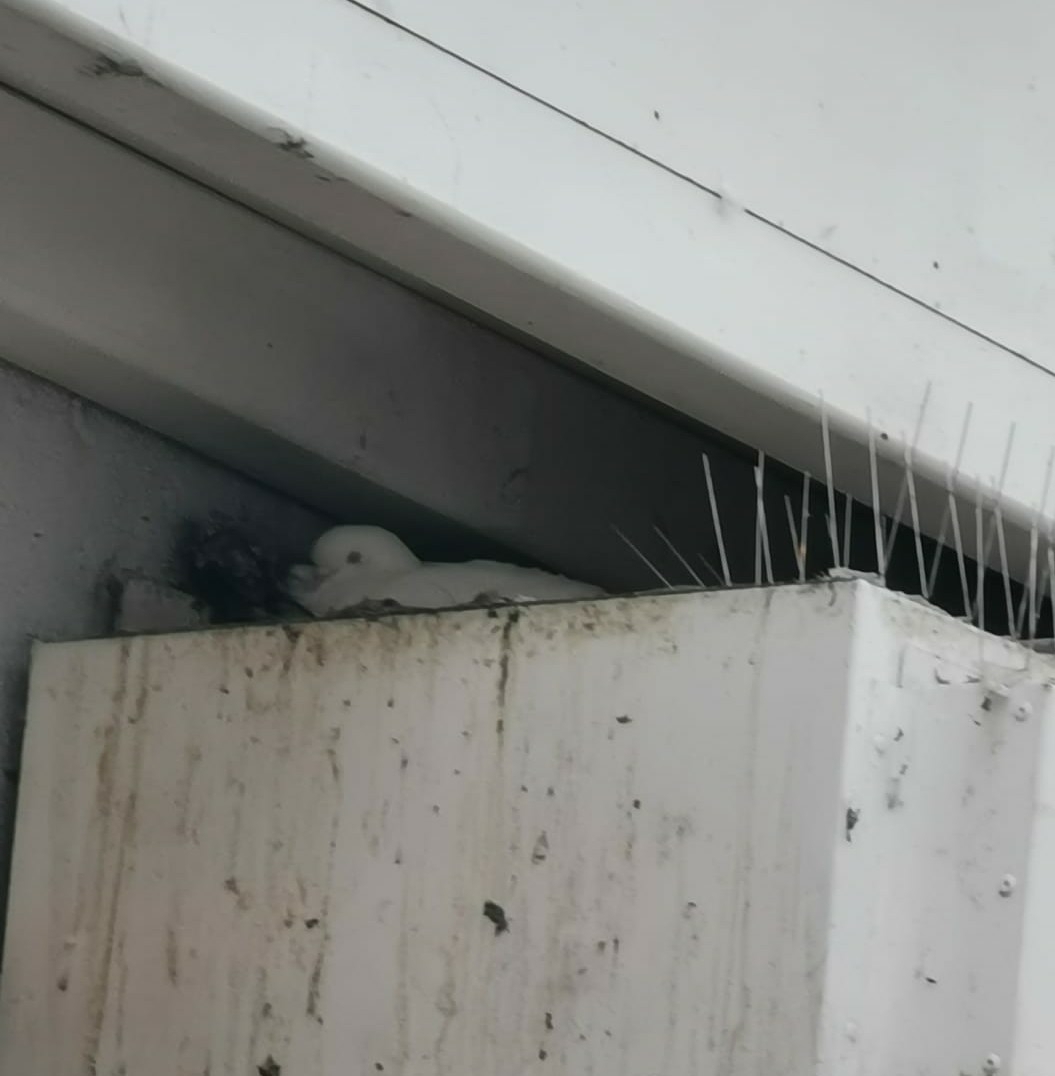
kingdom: Animalia
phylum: Chordata
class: Aves
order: Columbiformes
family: Columbidae
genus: Columba
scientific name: Columba livia
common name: Rock pigeon
